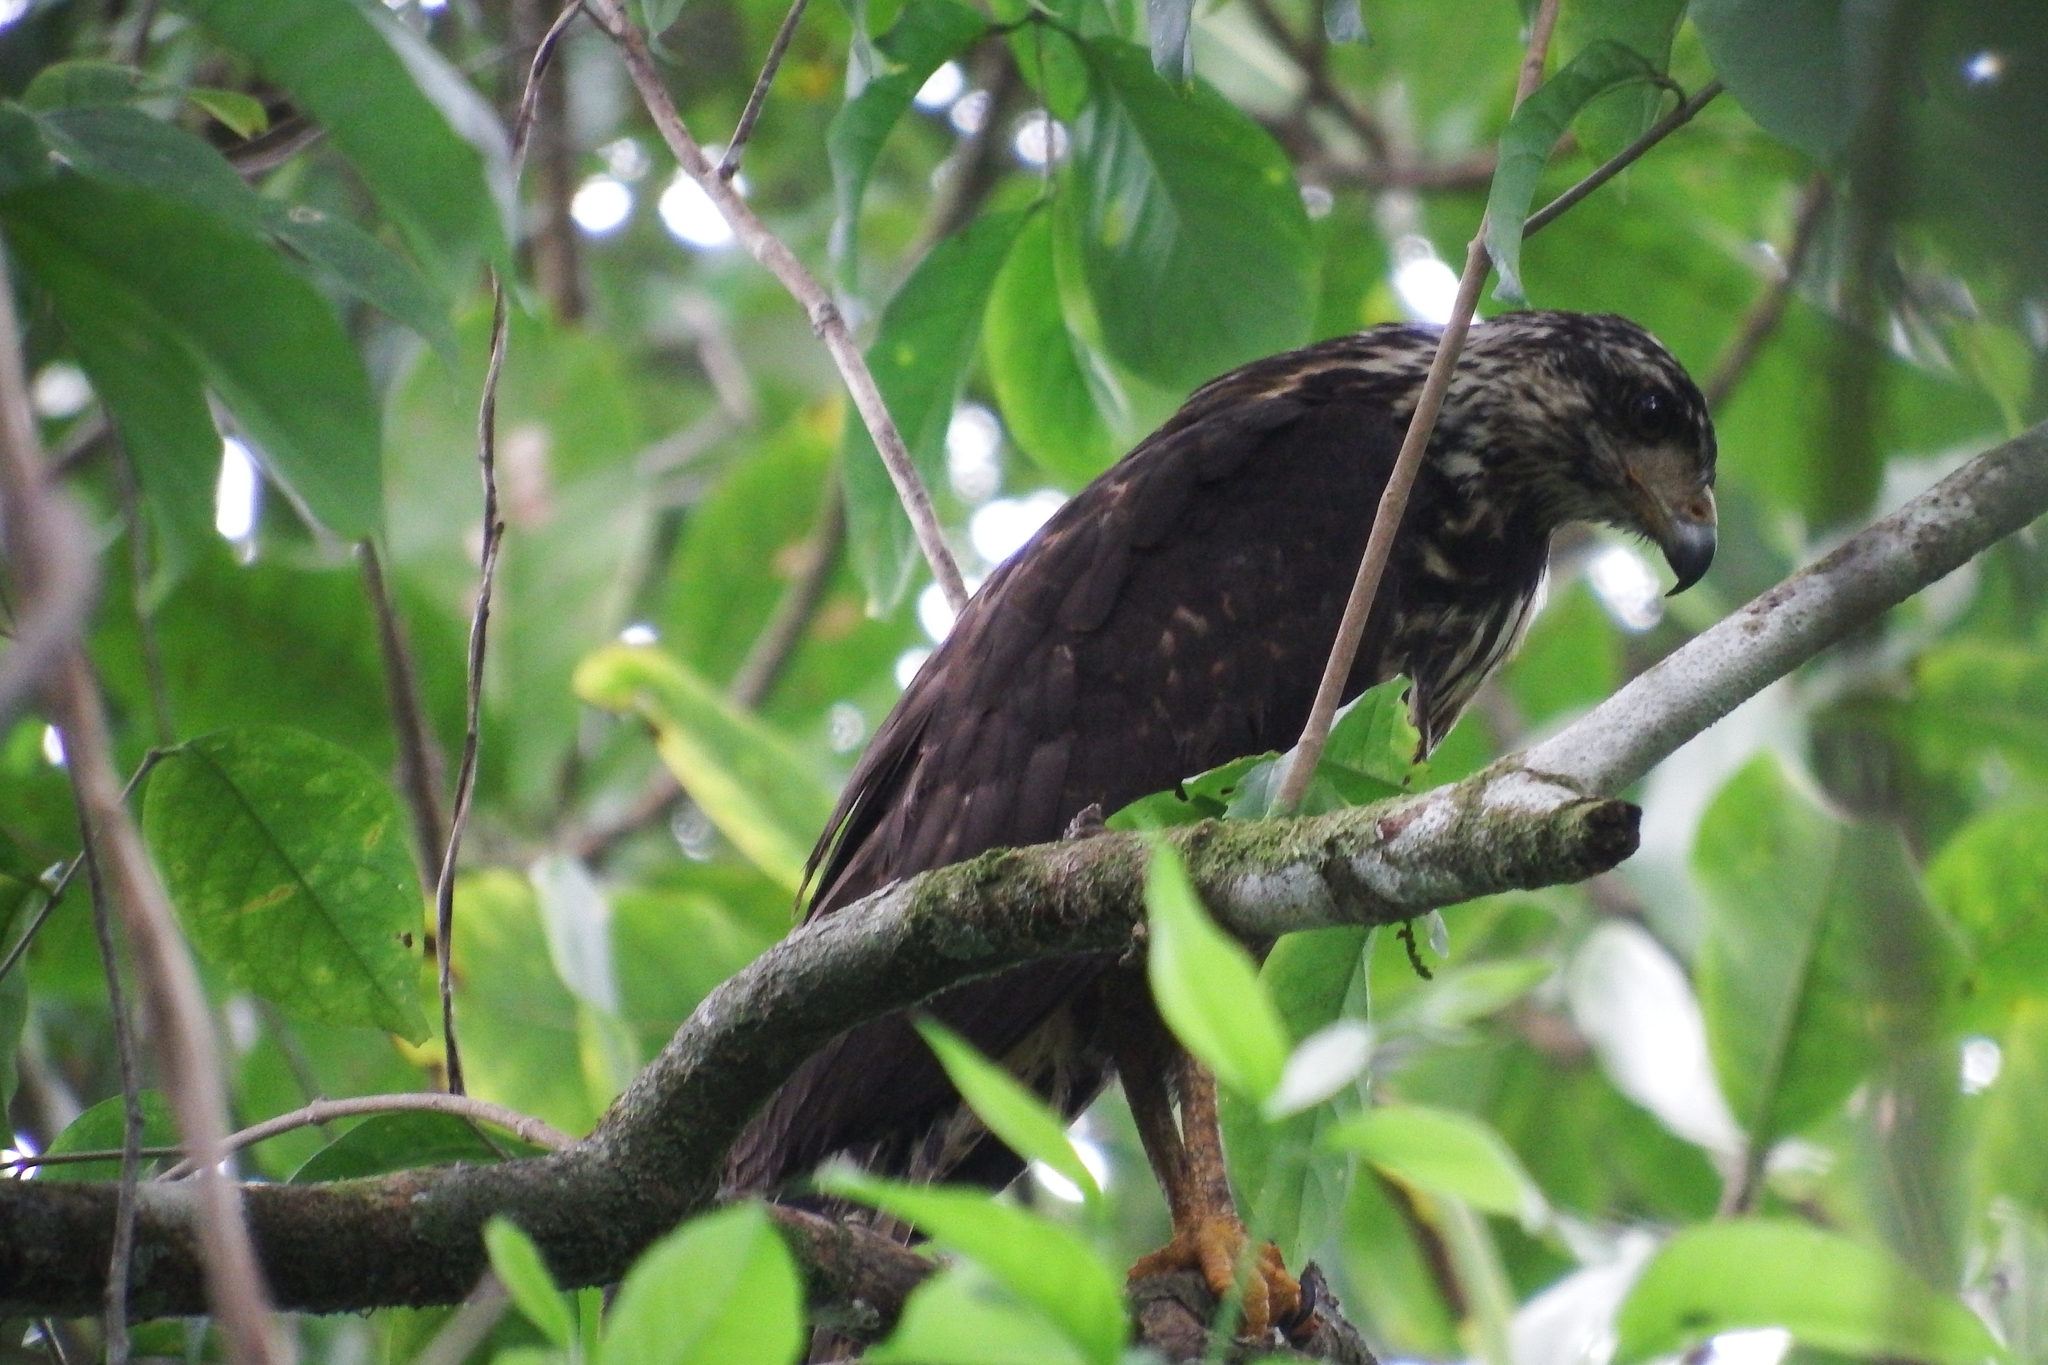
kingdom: Animalia
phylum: Chordata
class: Aves
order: Accipitriformes
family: Accipitridae
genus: Buteogallus
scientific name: Buteogallus anthracinus
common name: Common black hawk
